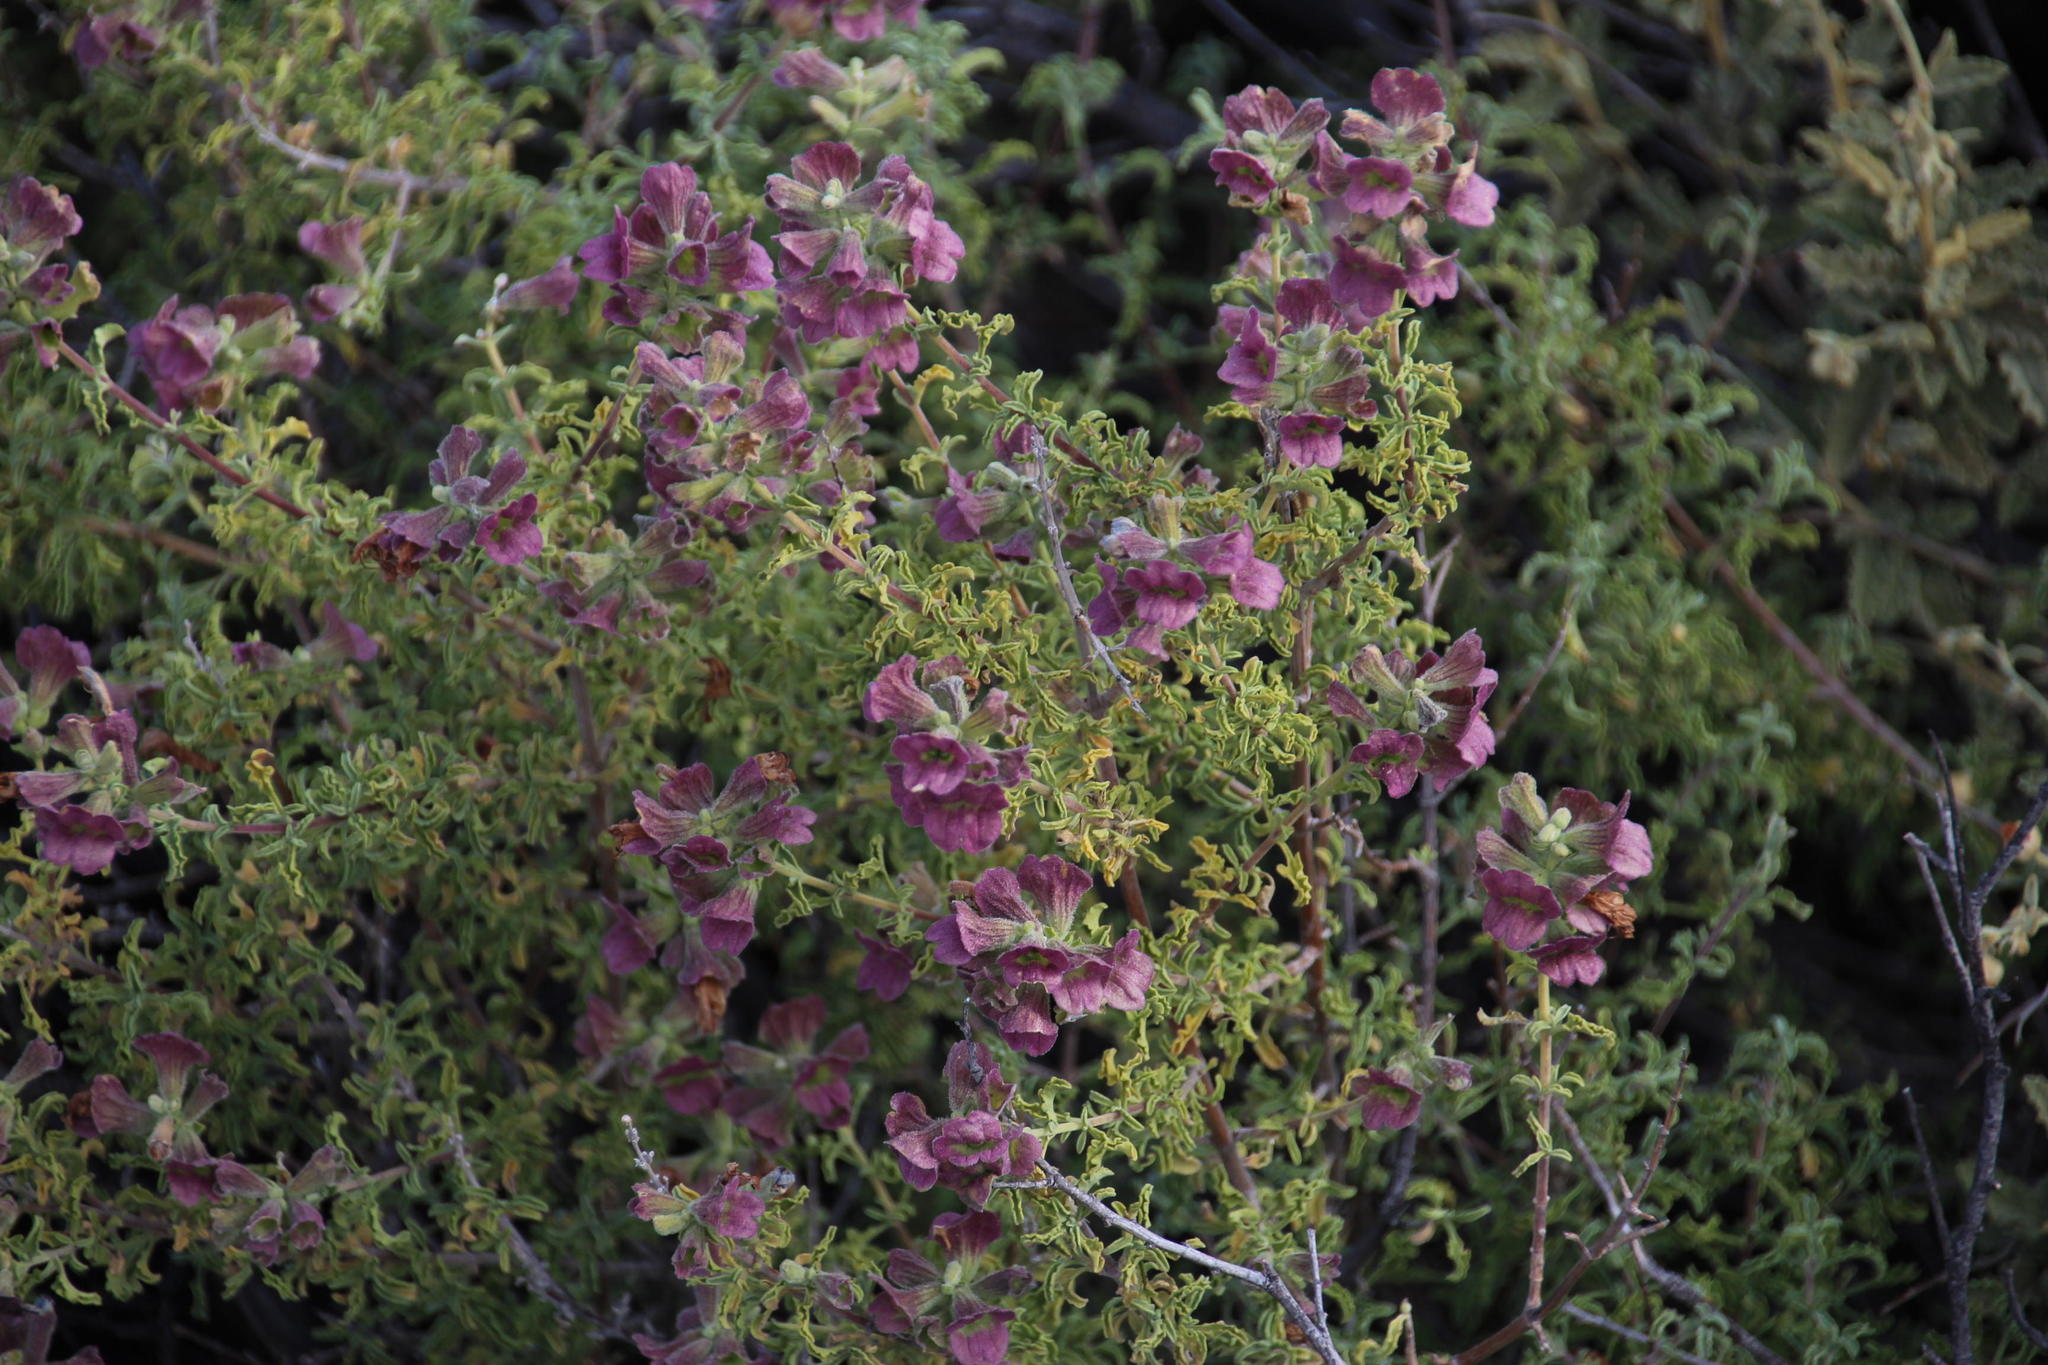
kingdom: Plantae
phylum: Tracheophyta
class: Magnoliopsida
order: Lamiales
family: Lamiaceae
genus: Salvia
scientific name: Salvia dentata
